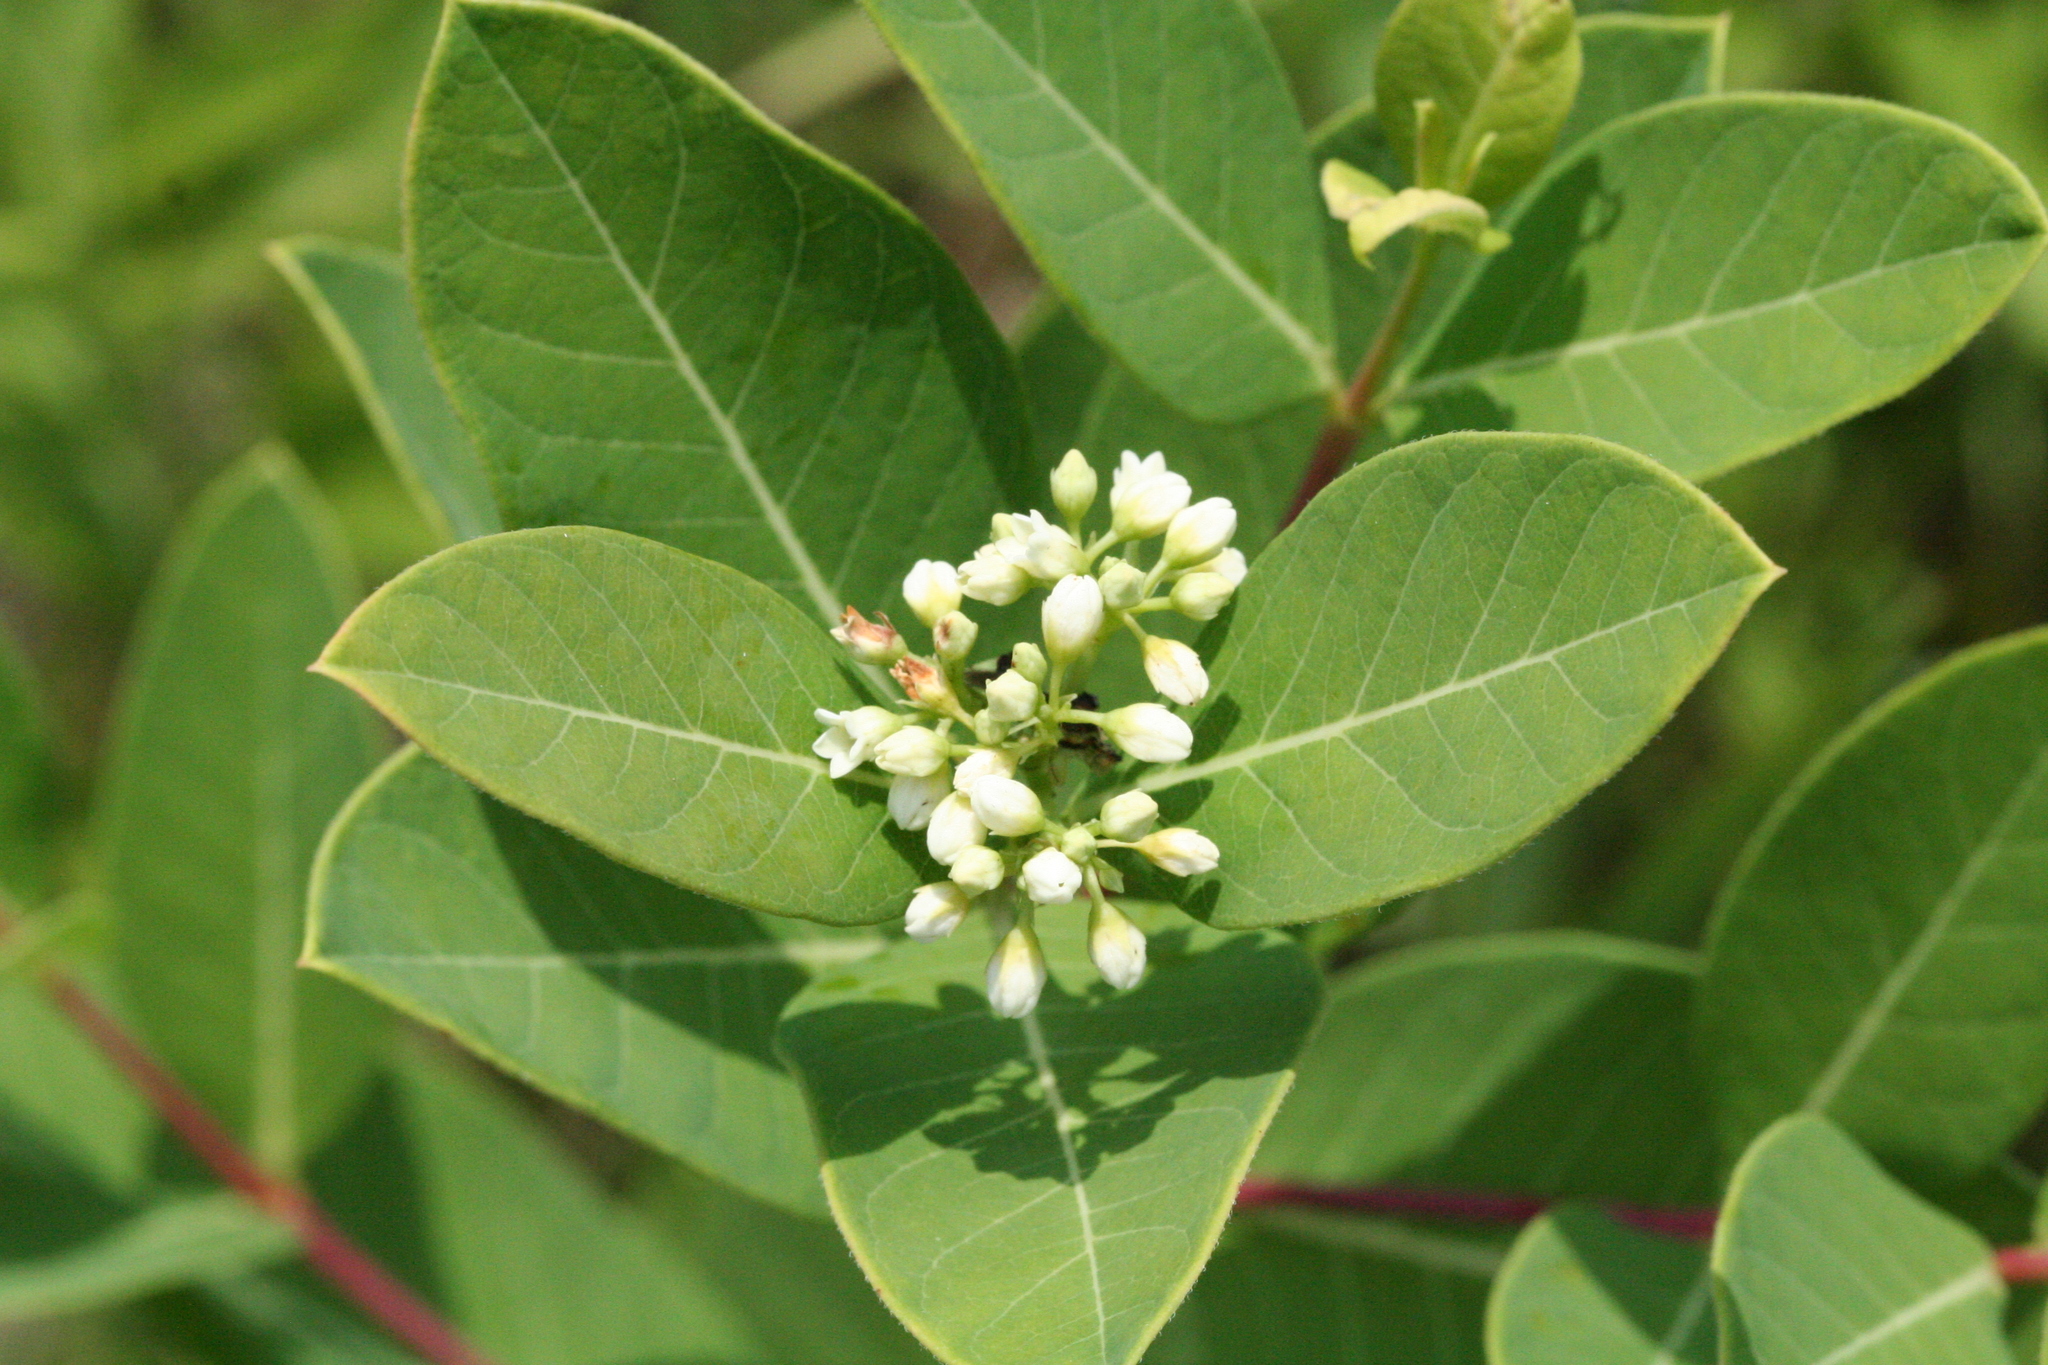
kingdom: Plantae
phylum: Tracheophyta
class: Magnoliopsida
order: Gentianales
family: Apocynaceae
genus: Apocynum
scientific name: Apocynum cannabinum
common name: Hemp dogbane
